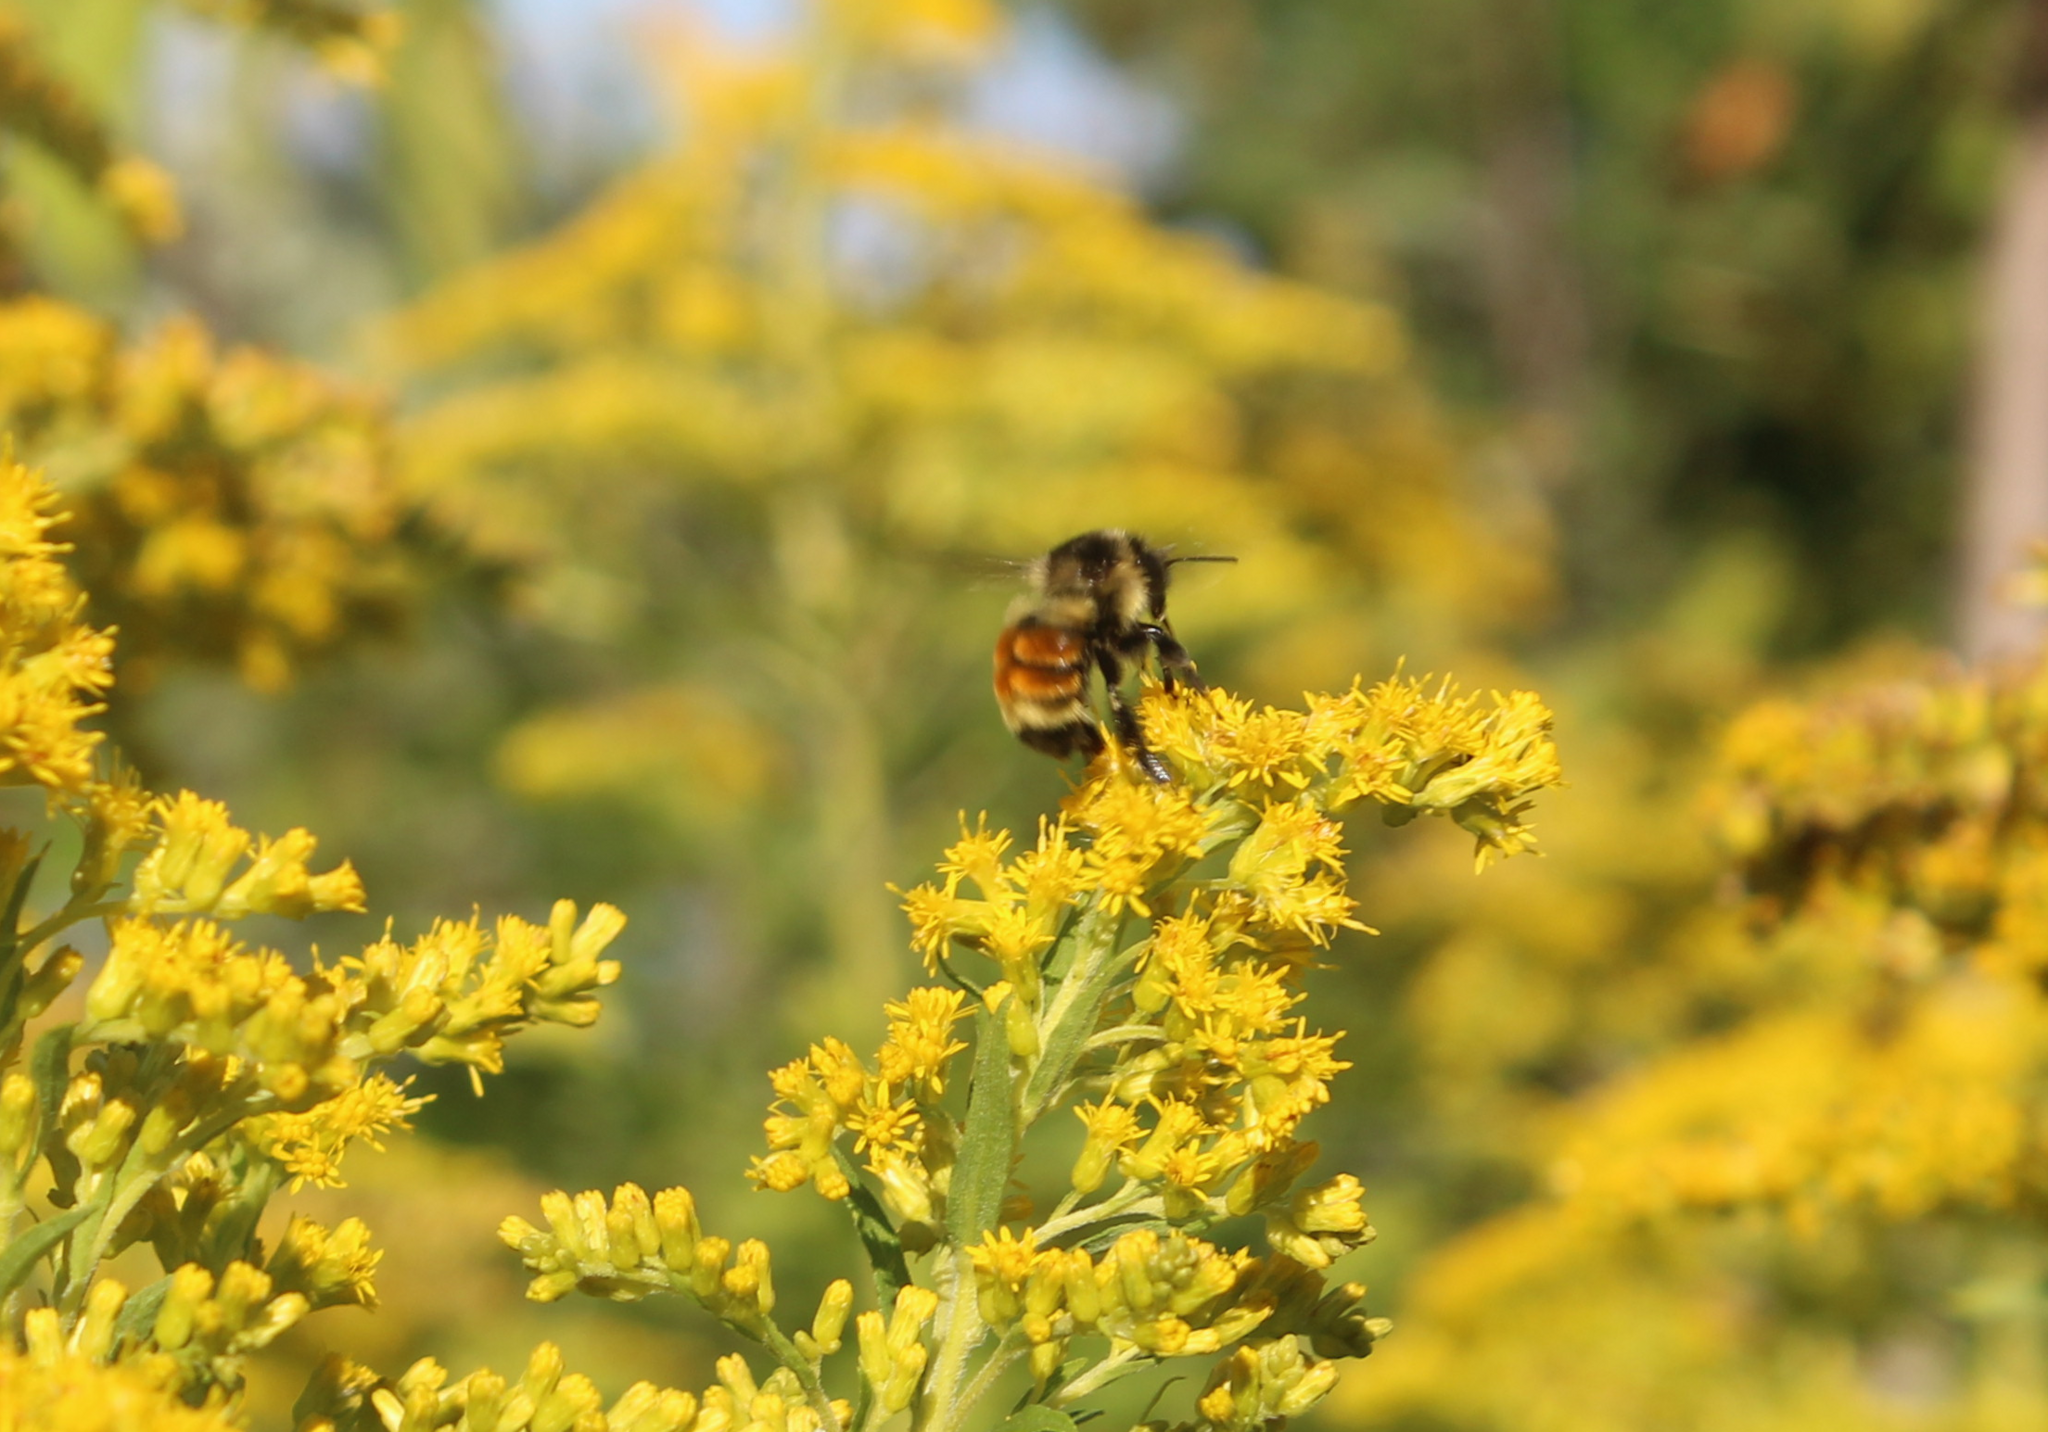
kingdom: Animalia
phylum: Arthropoda
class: Insecta
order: Hymenoptera
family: Apidae
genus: Bombus
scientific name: Bombus ternarius
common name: Tri-colored bumble bee
